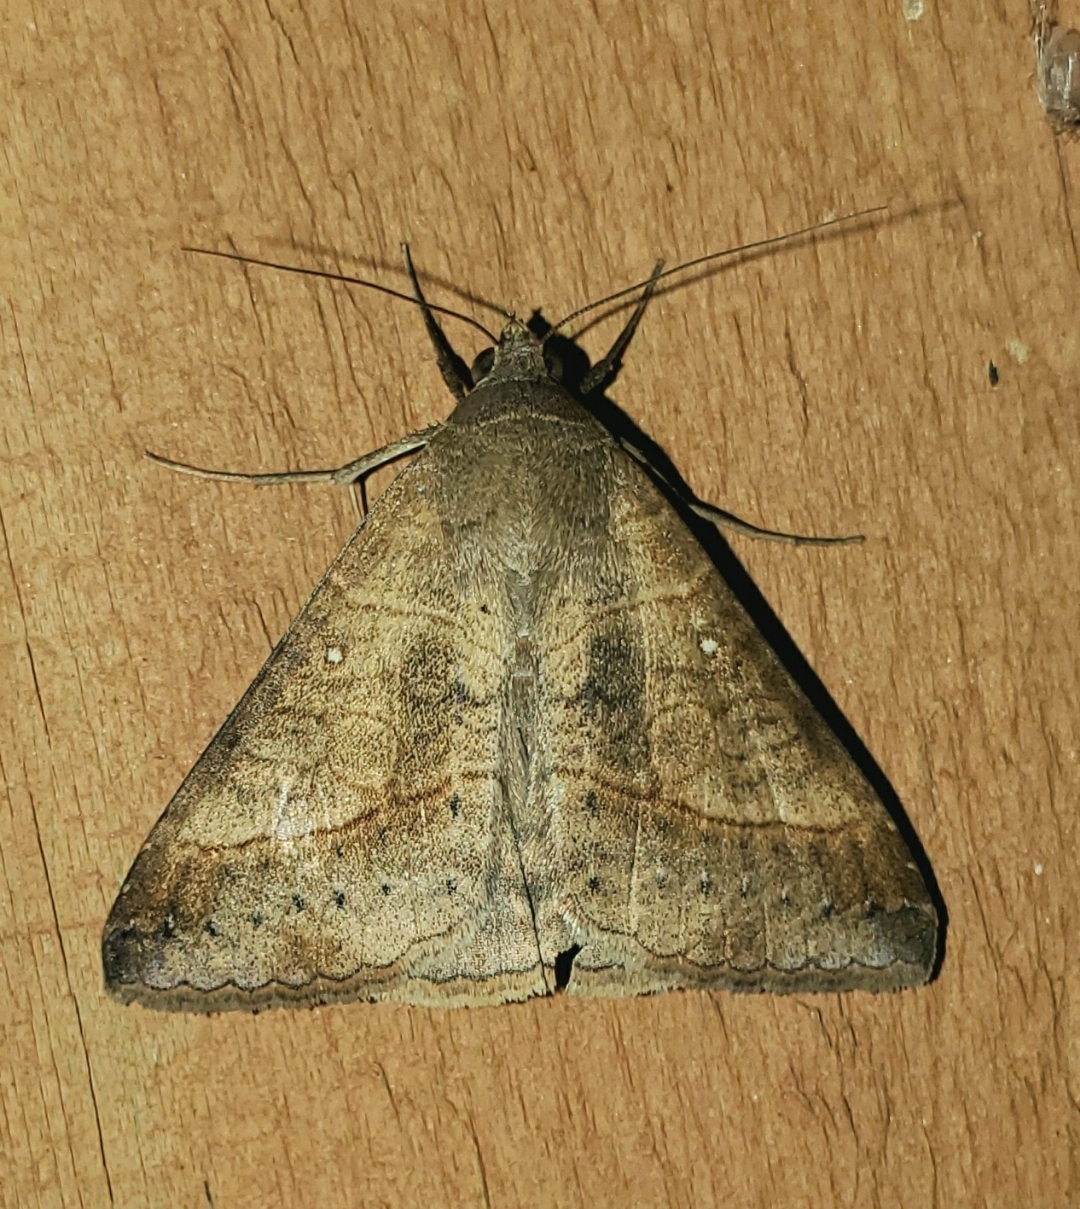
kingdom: Animalia
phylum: Arthropoda
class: Insecta
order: Lepidoptera
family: Erebidae
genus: Mocis
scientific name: Mocis latipes
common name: Striped grass looper
